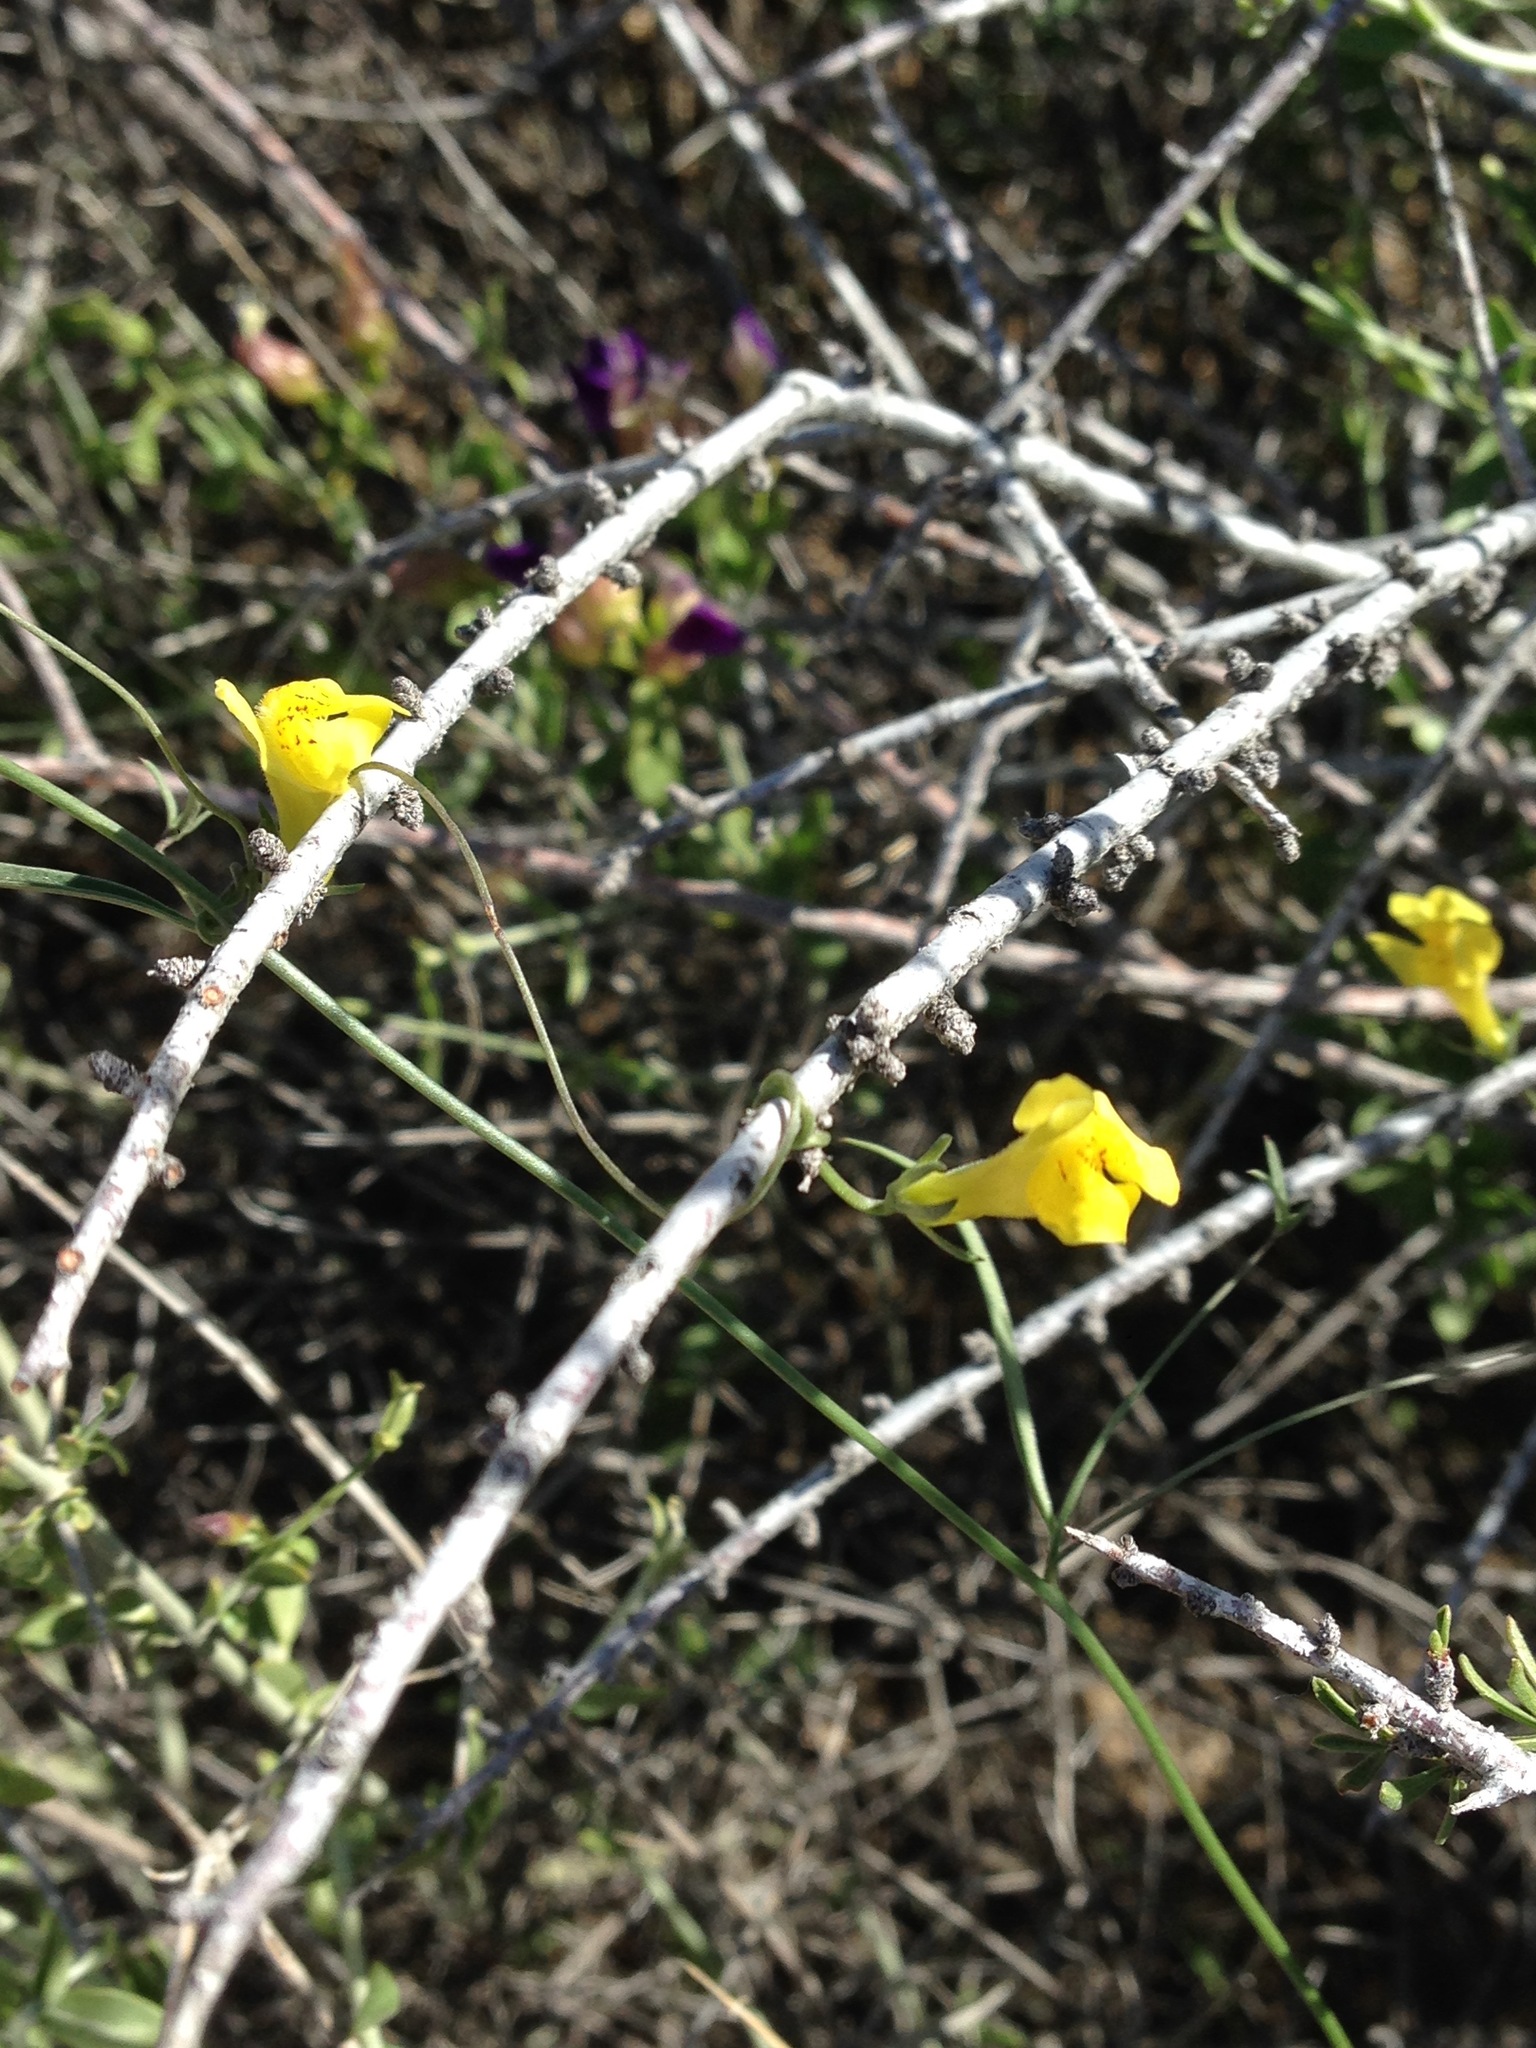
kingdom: Plantae
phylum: Tracheophyta
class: Magnoliopsida
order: Lamiales
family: Plantaginaceae
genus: Neogaerrhinum
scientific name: Neogaerrhinum filipes
